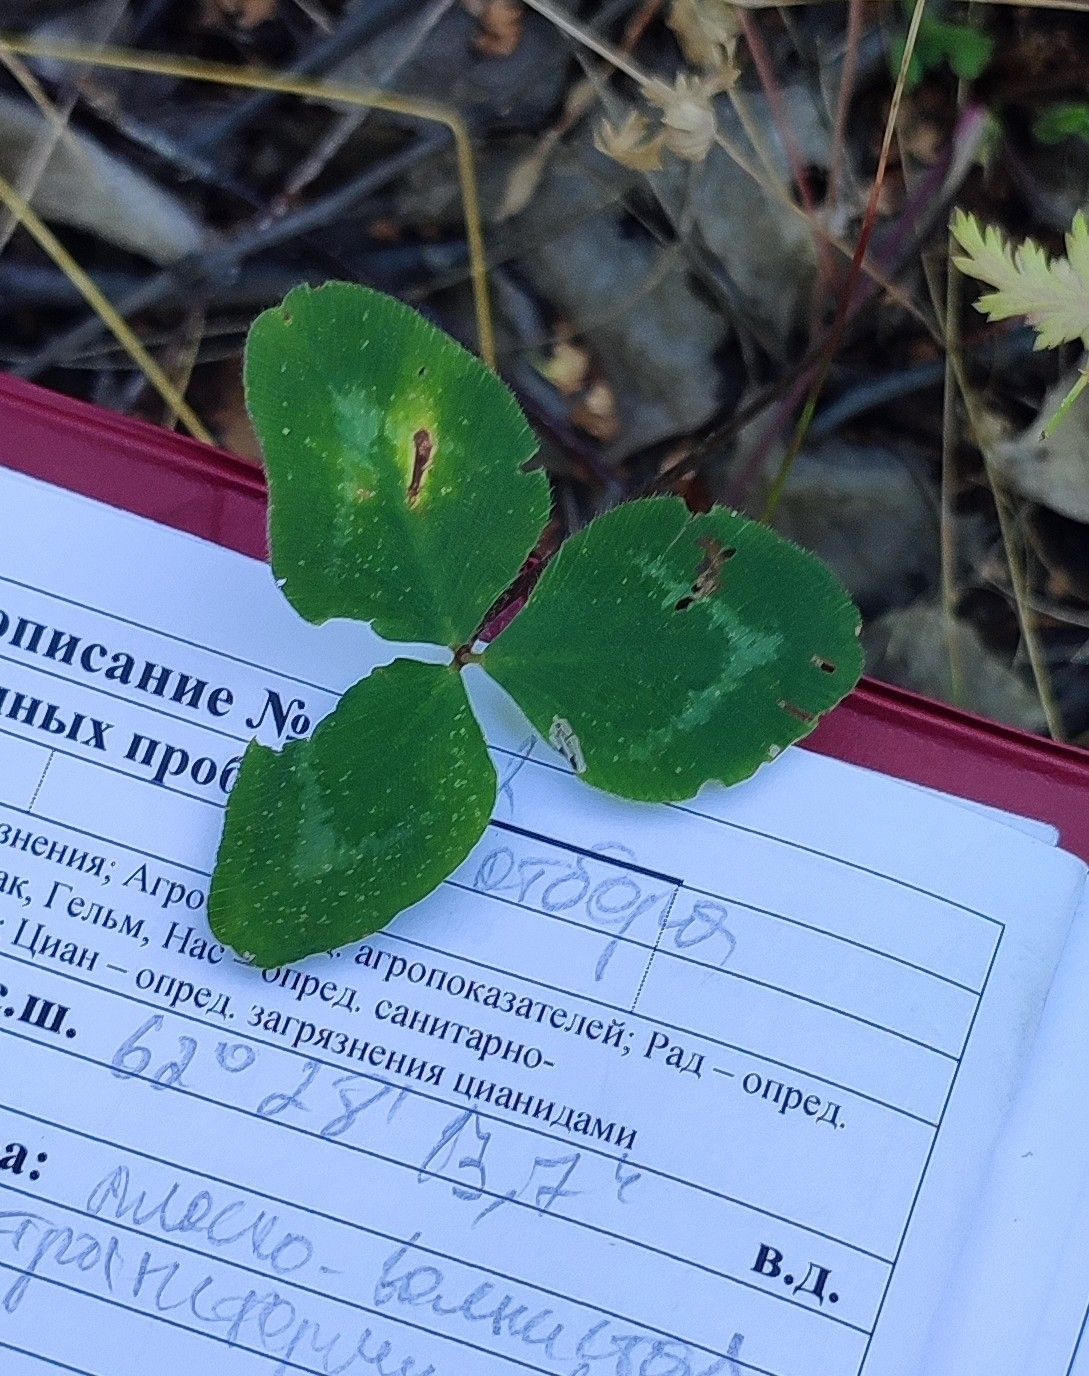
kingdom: Plantae
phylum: Tracheophyta
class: Magnoliopsida
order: Fabales
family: Fabaceae
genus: Trifolium
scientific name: Trifolium pratense
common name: Red clover
